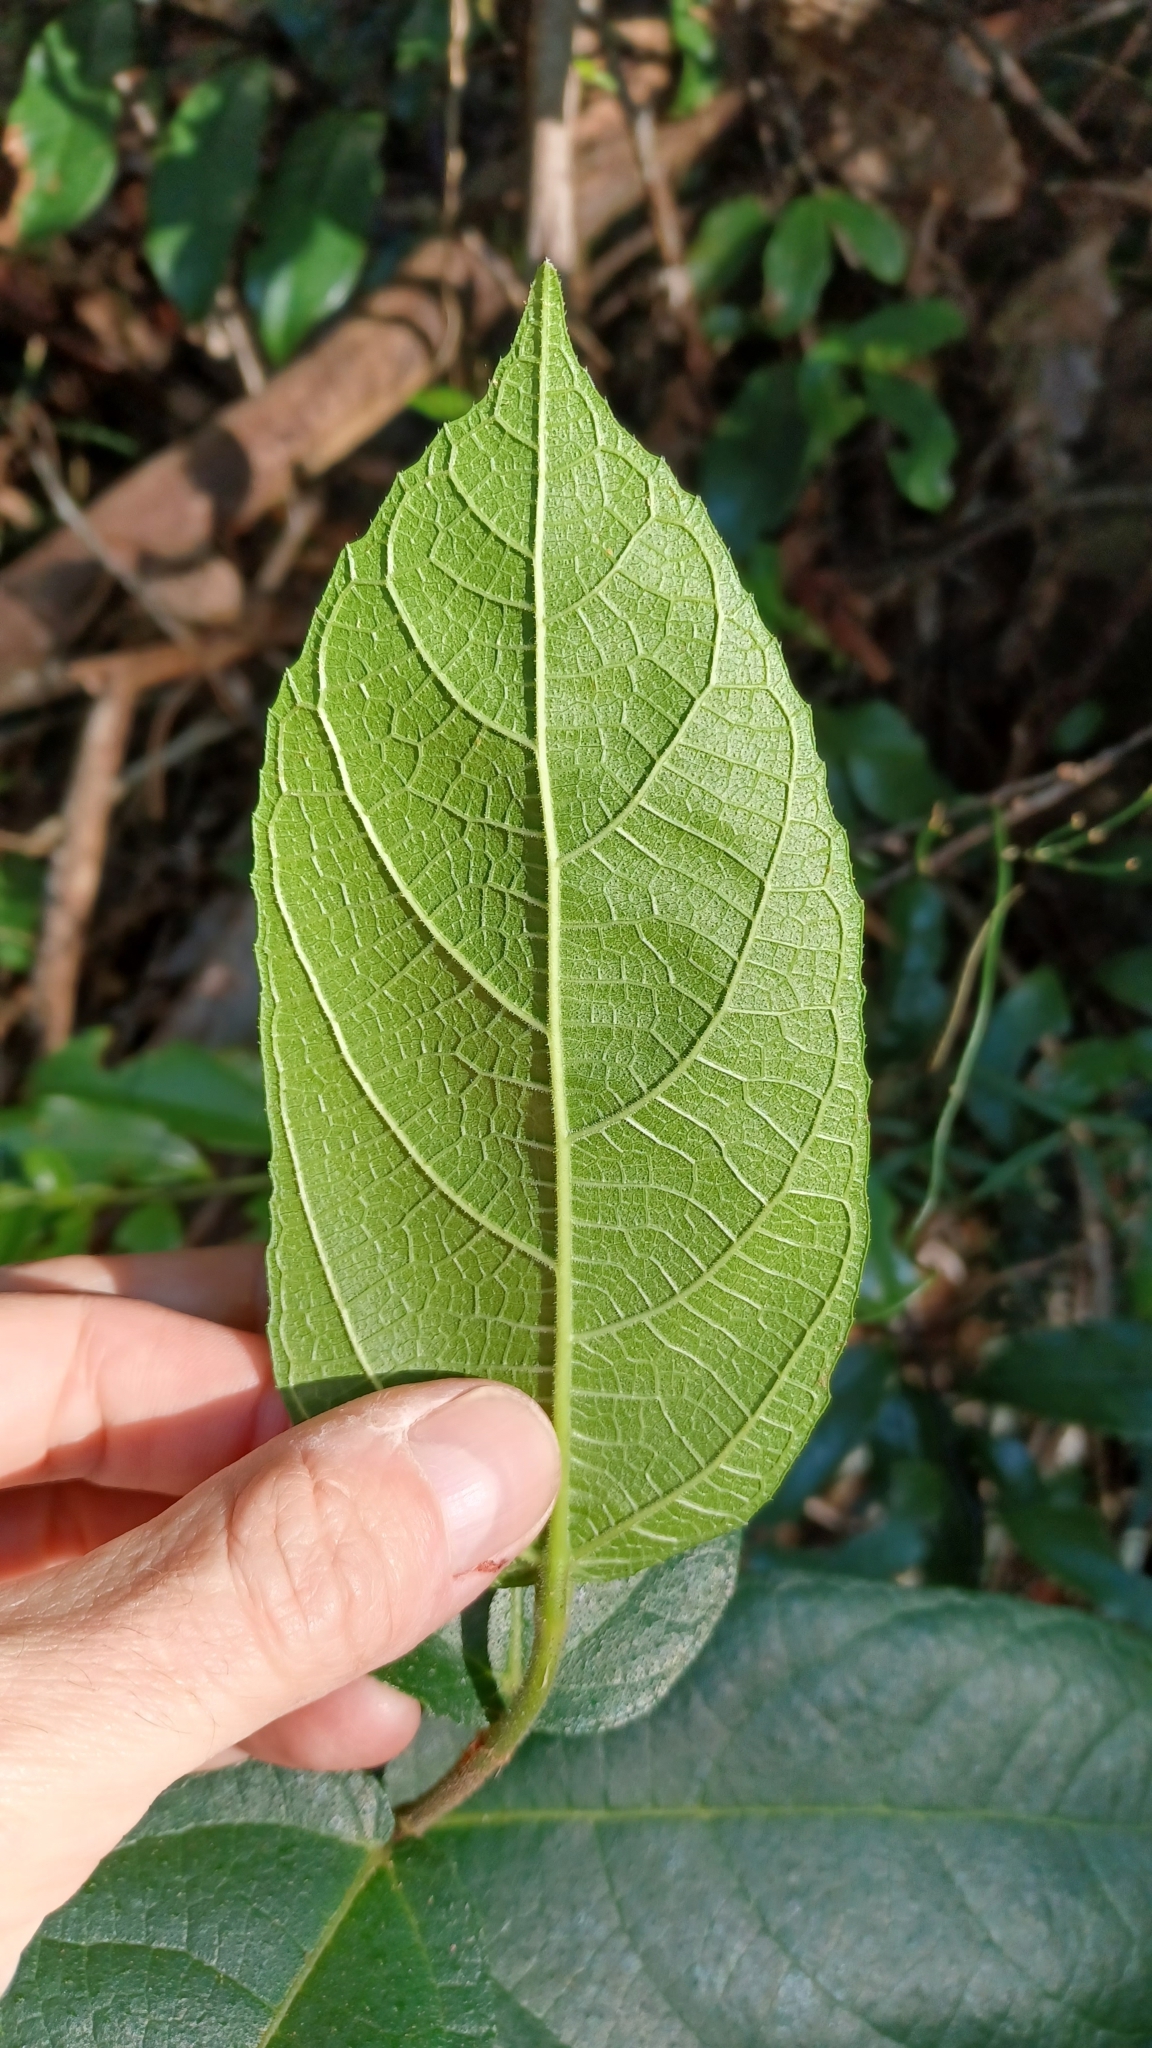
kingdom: Plantae
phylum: Tracheophyta
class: Magnoliopsida
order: Rosales
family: Moraceae
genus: Ficus
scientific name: Ficus coronata
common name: Creek sandpaper fig
